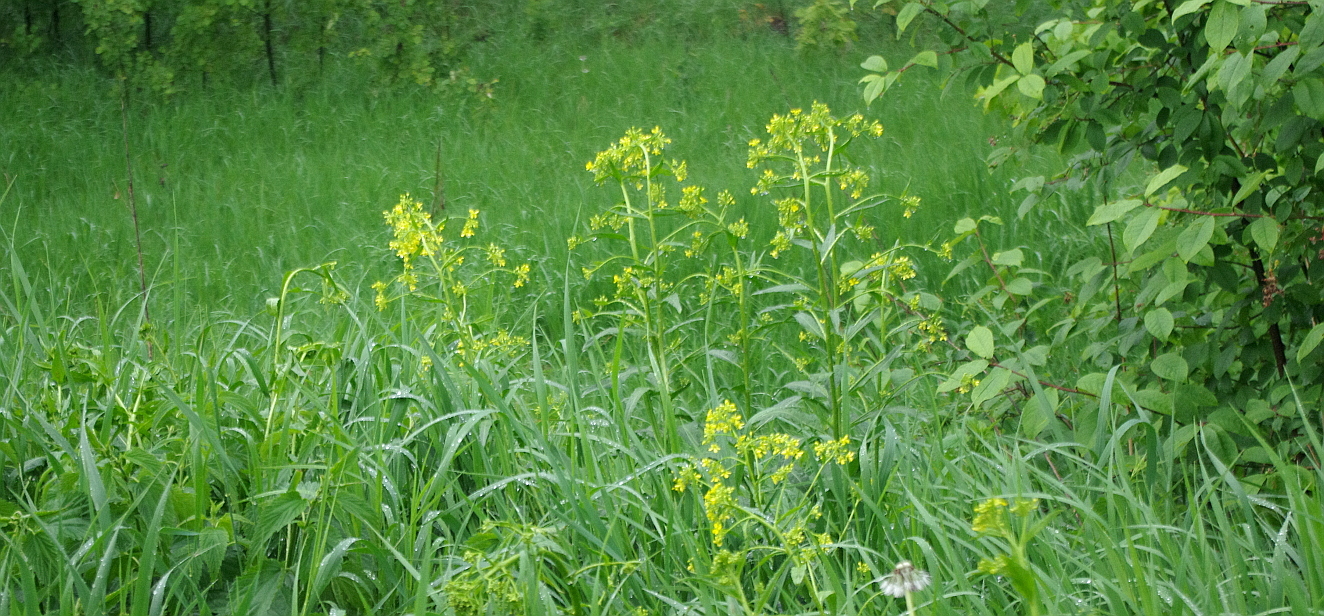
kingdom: Plantae
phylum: Tracheophyta
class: Magnoliopsida
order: Brassicales
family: Brassicaceae
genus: Barbarea
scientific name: Barbarea vulgaris
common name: Cressy-greens
